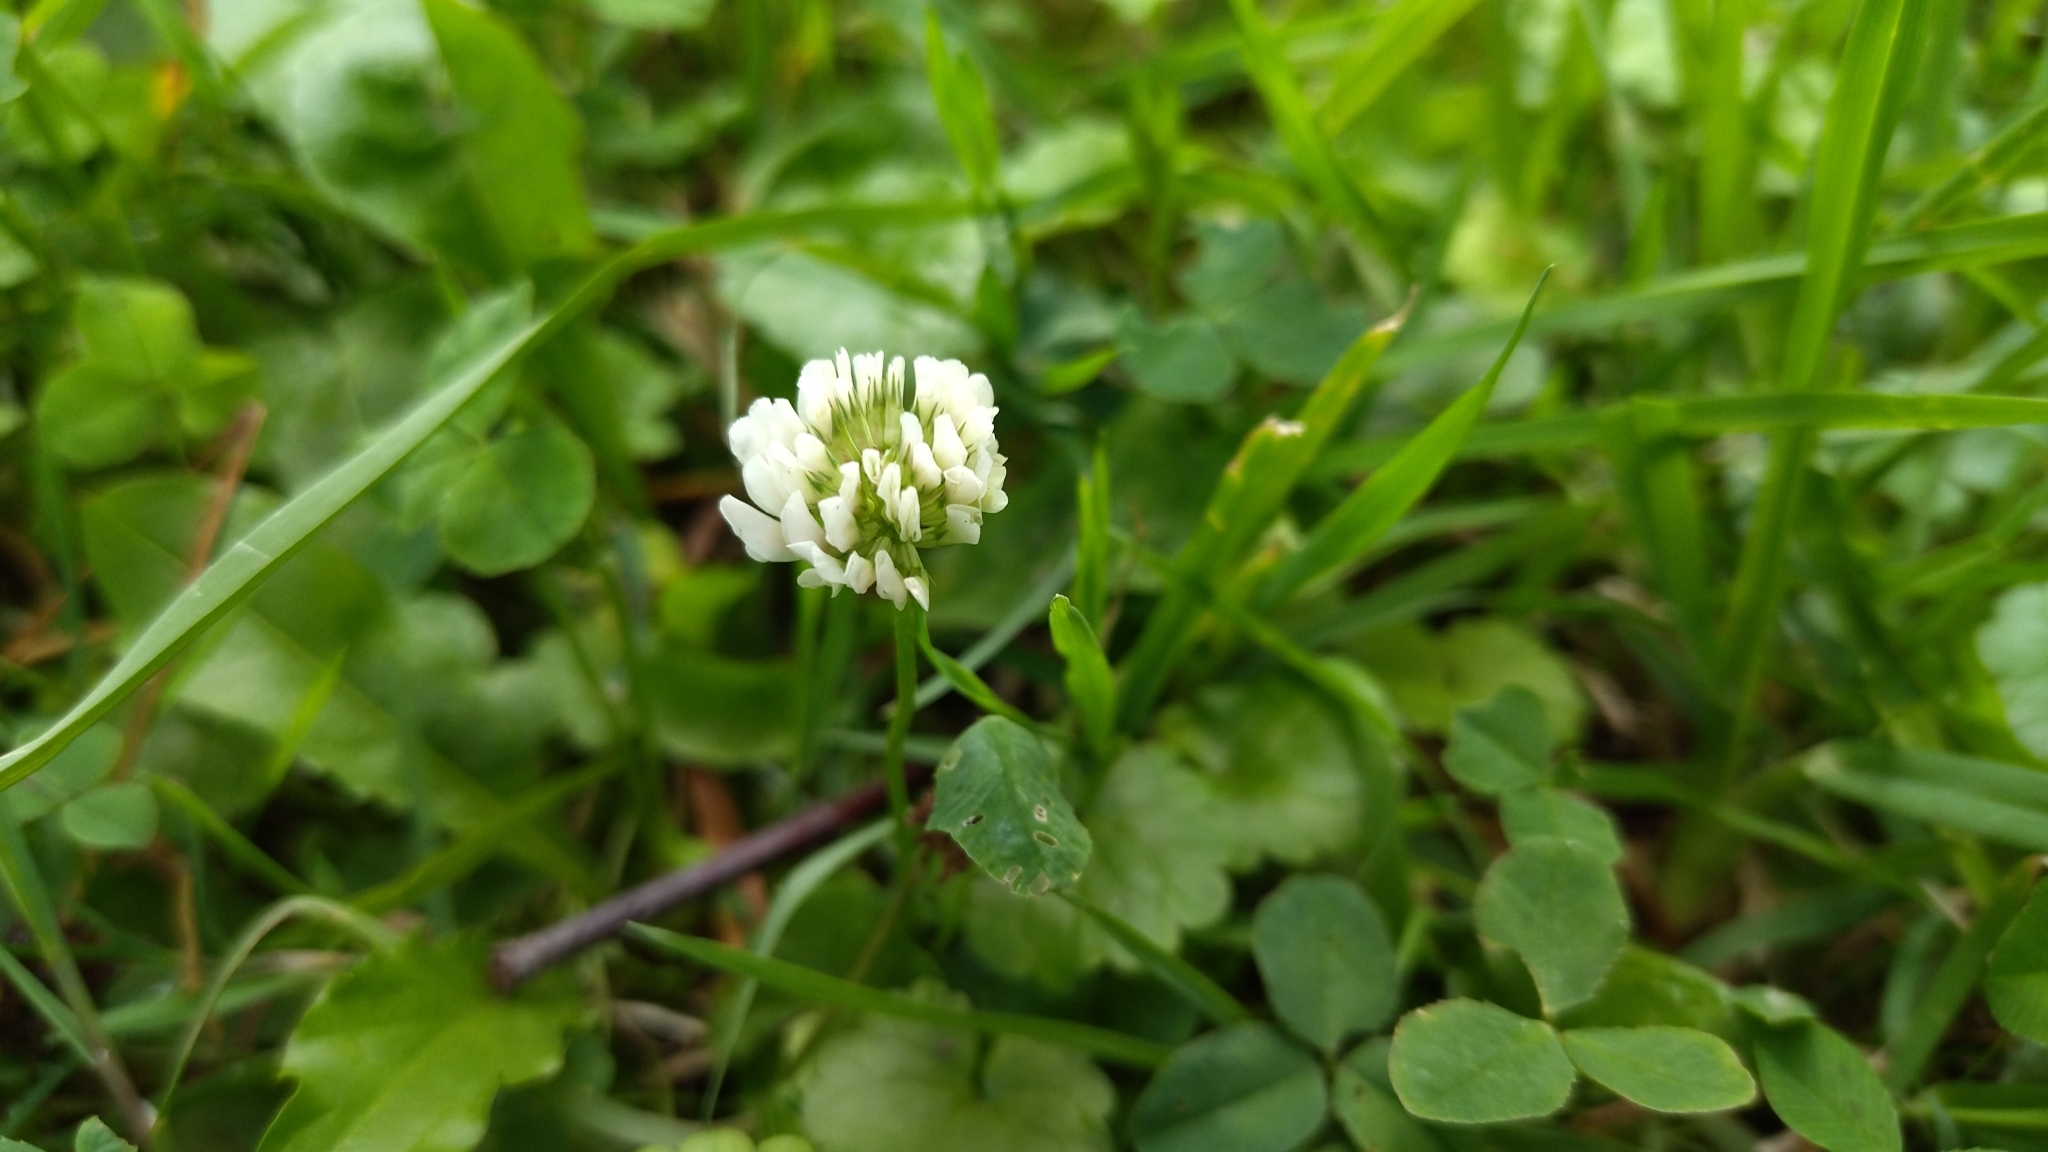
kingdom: Plantae
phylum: Tracheophyta
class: Magnoliopsida
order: Fabales
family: Fabaceae
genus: Trifolium
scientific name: Trifolium repens
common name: White clover
